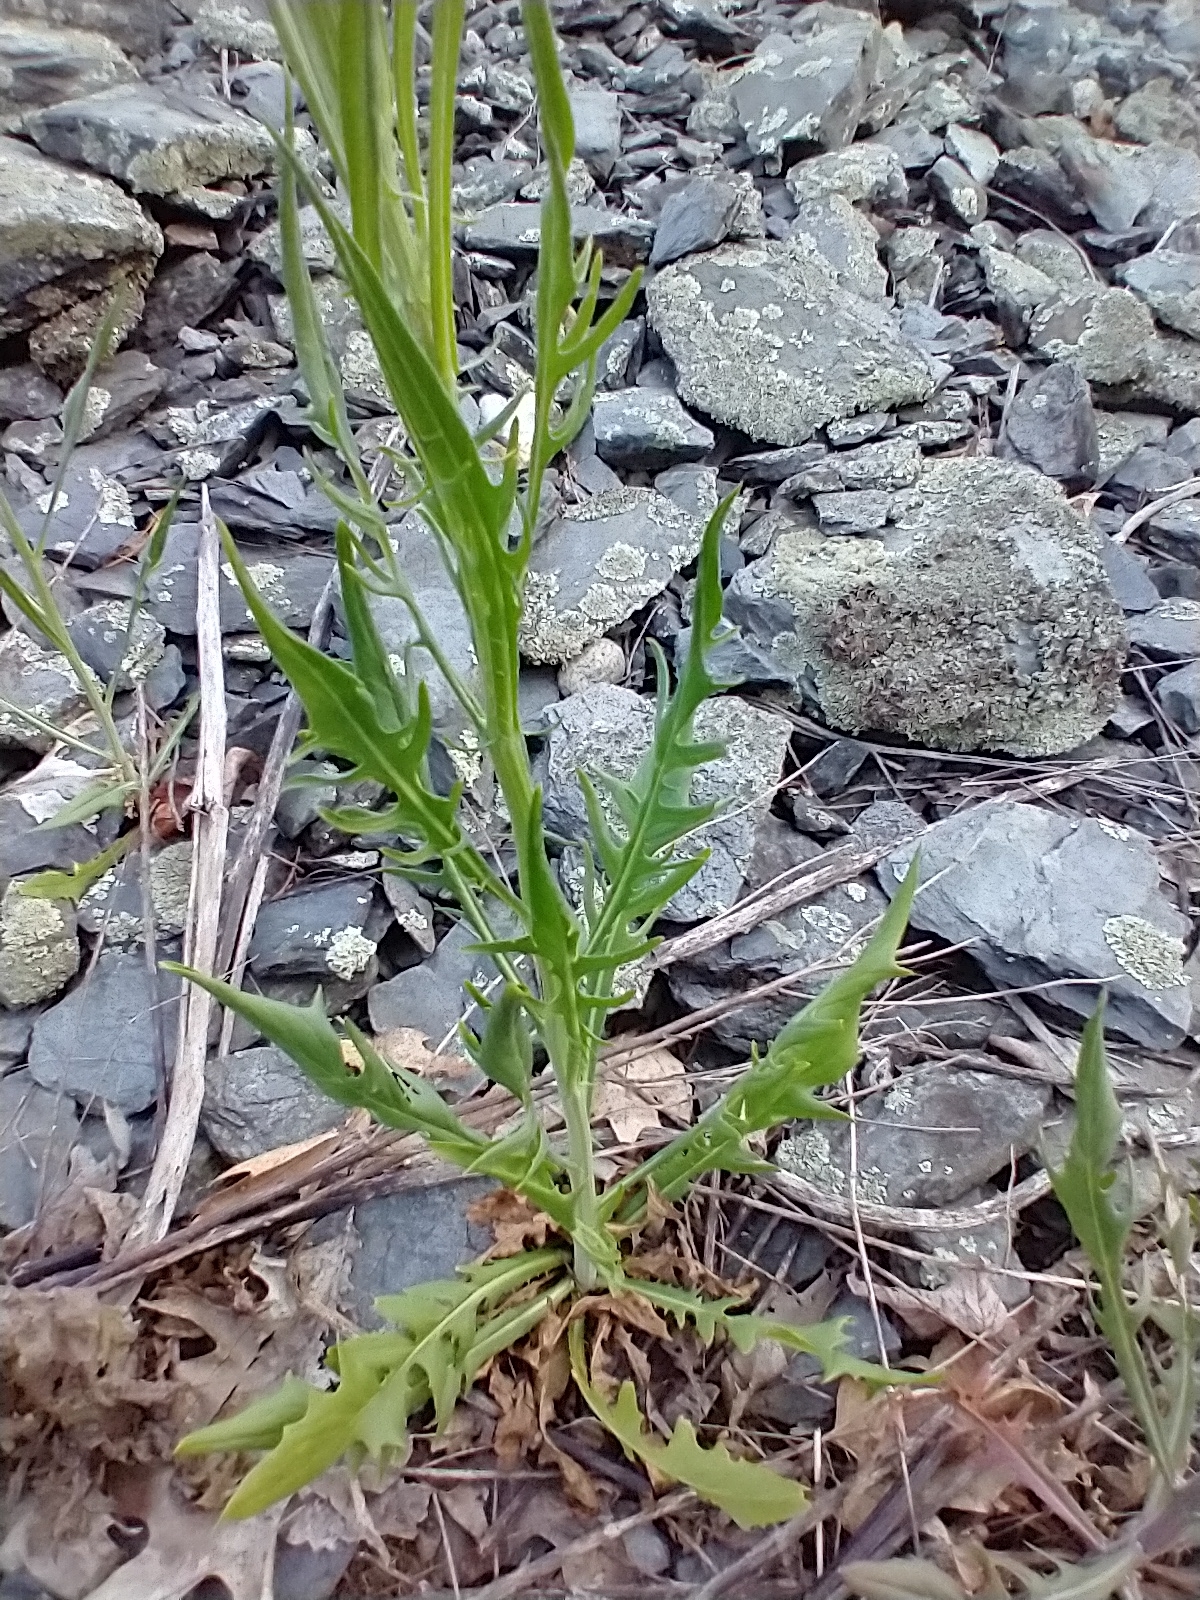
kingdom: Plantae
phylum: Tracheophyta
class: Magnoliopsida
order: Asterales
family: Asteraceae
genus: Crepis
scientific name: Crepis tectorum
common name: Narrow-leaved hawk's-beard
